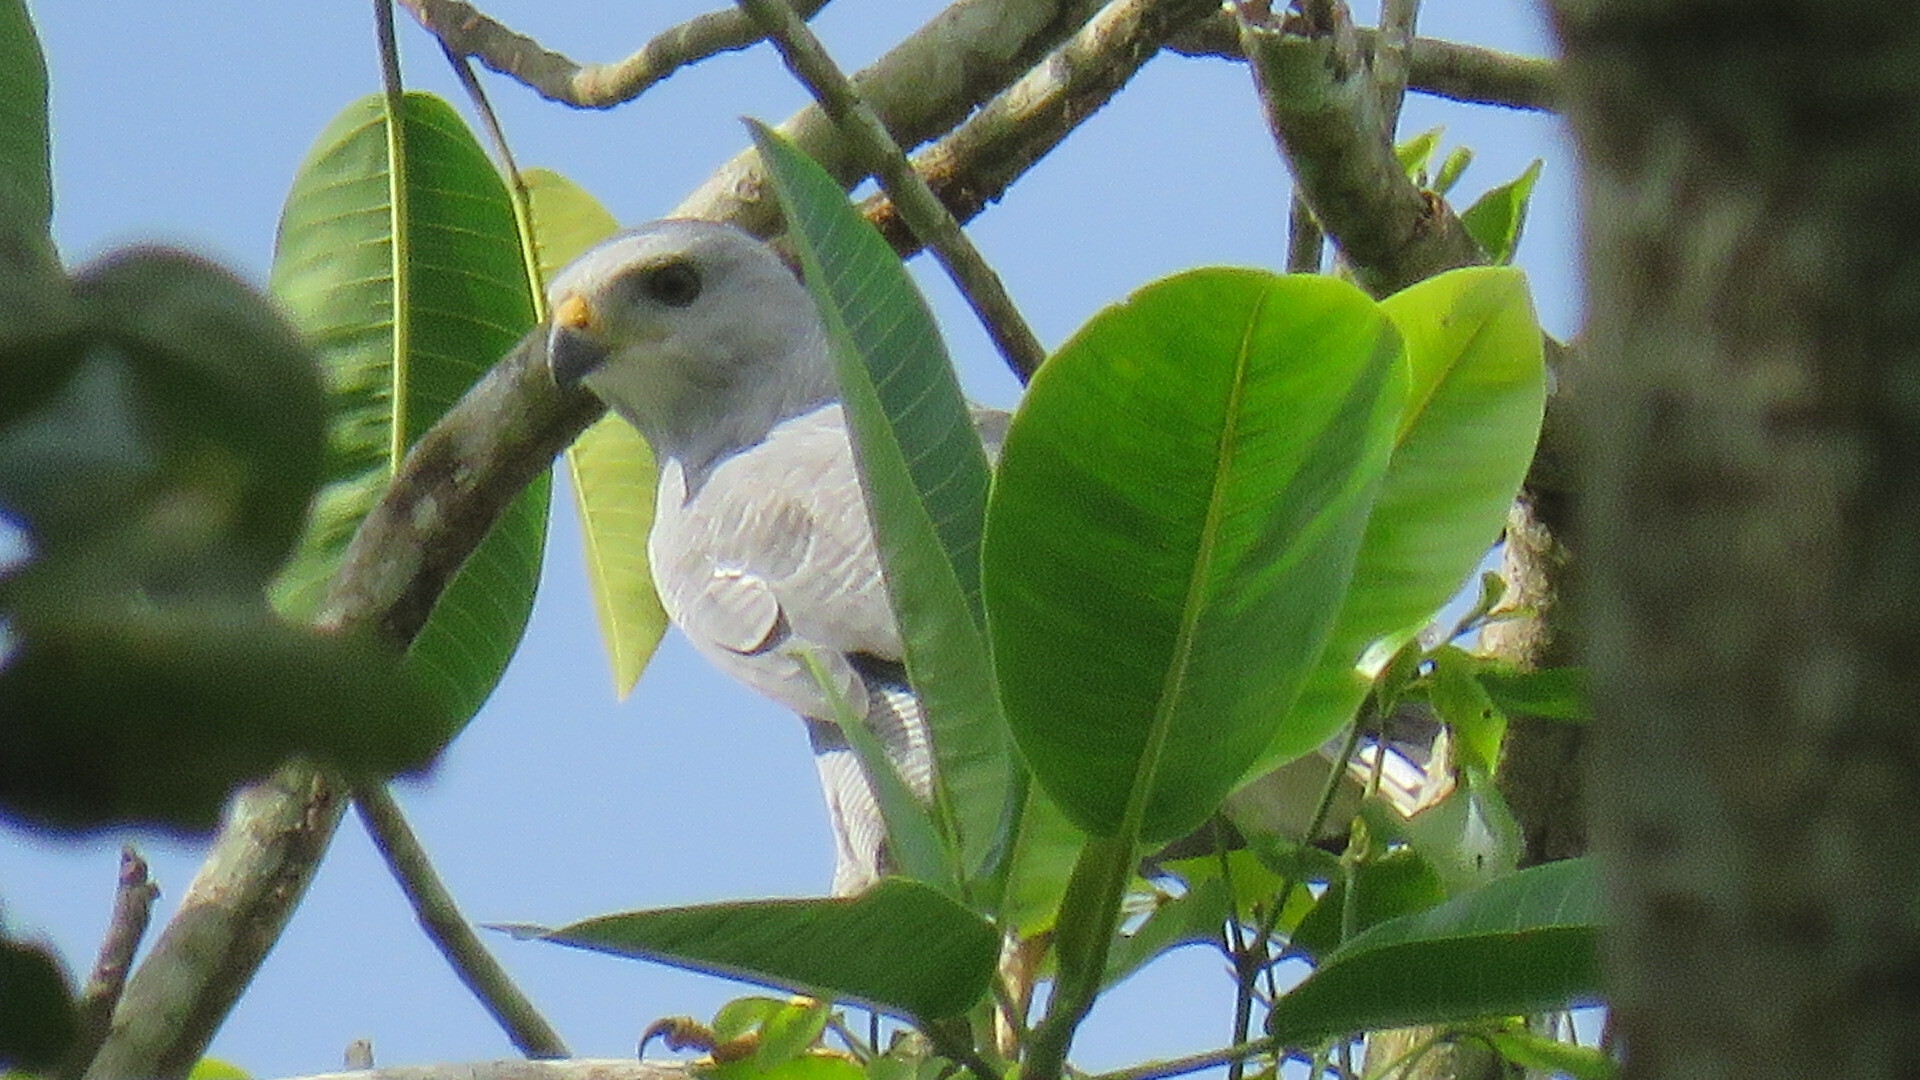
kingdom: Animalia
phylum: Chordata
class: Aves
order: Accipitriformes
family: Accipitridae
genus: Buteo
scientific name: Buteo nitidus
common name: Grey-lined hawk
